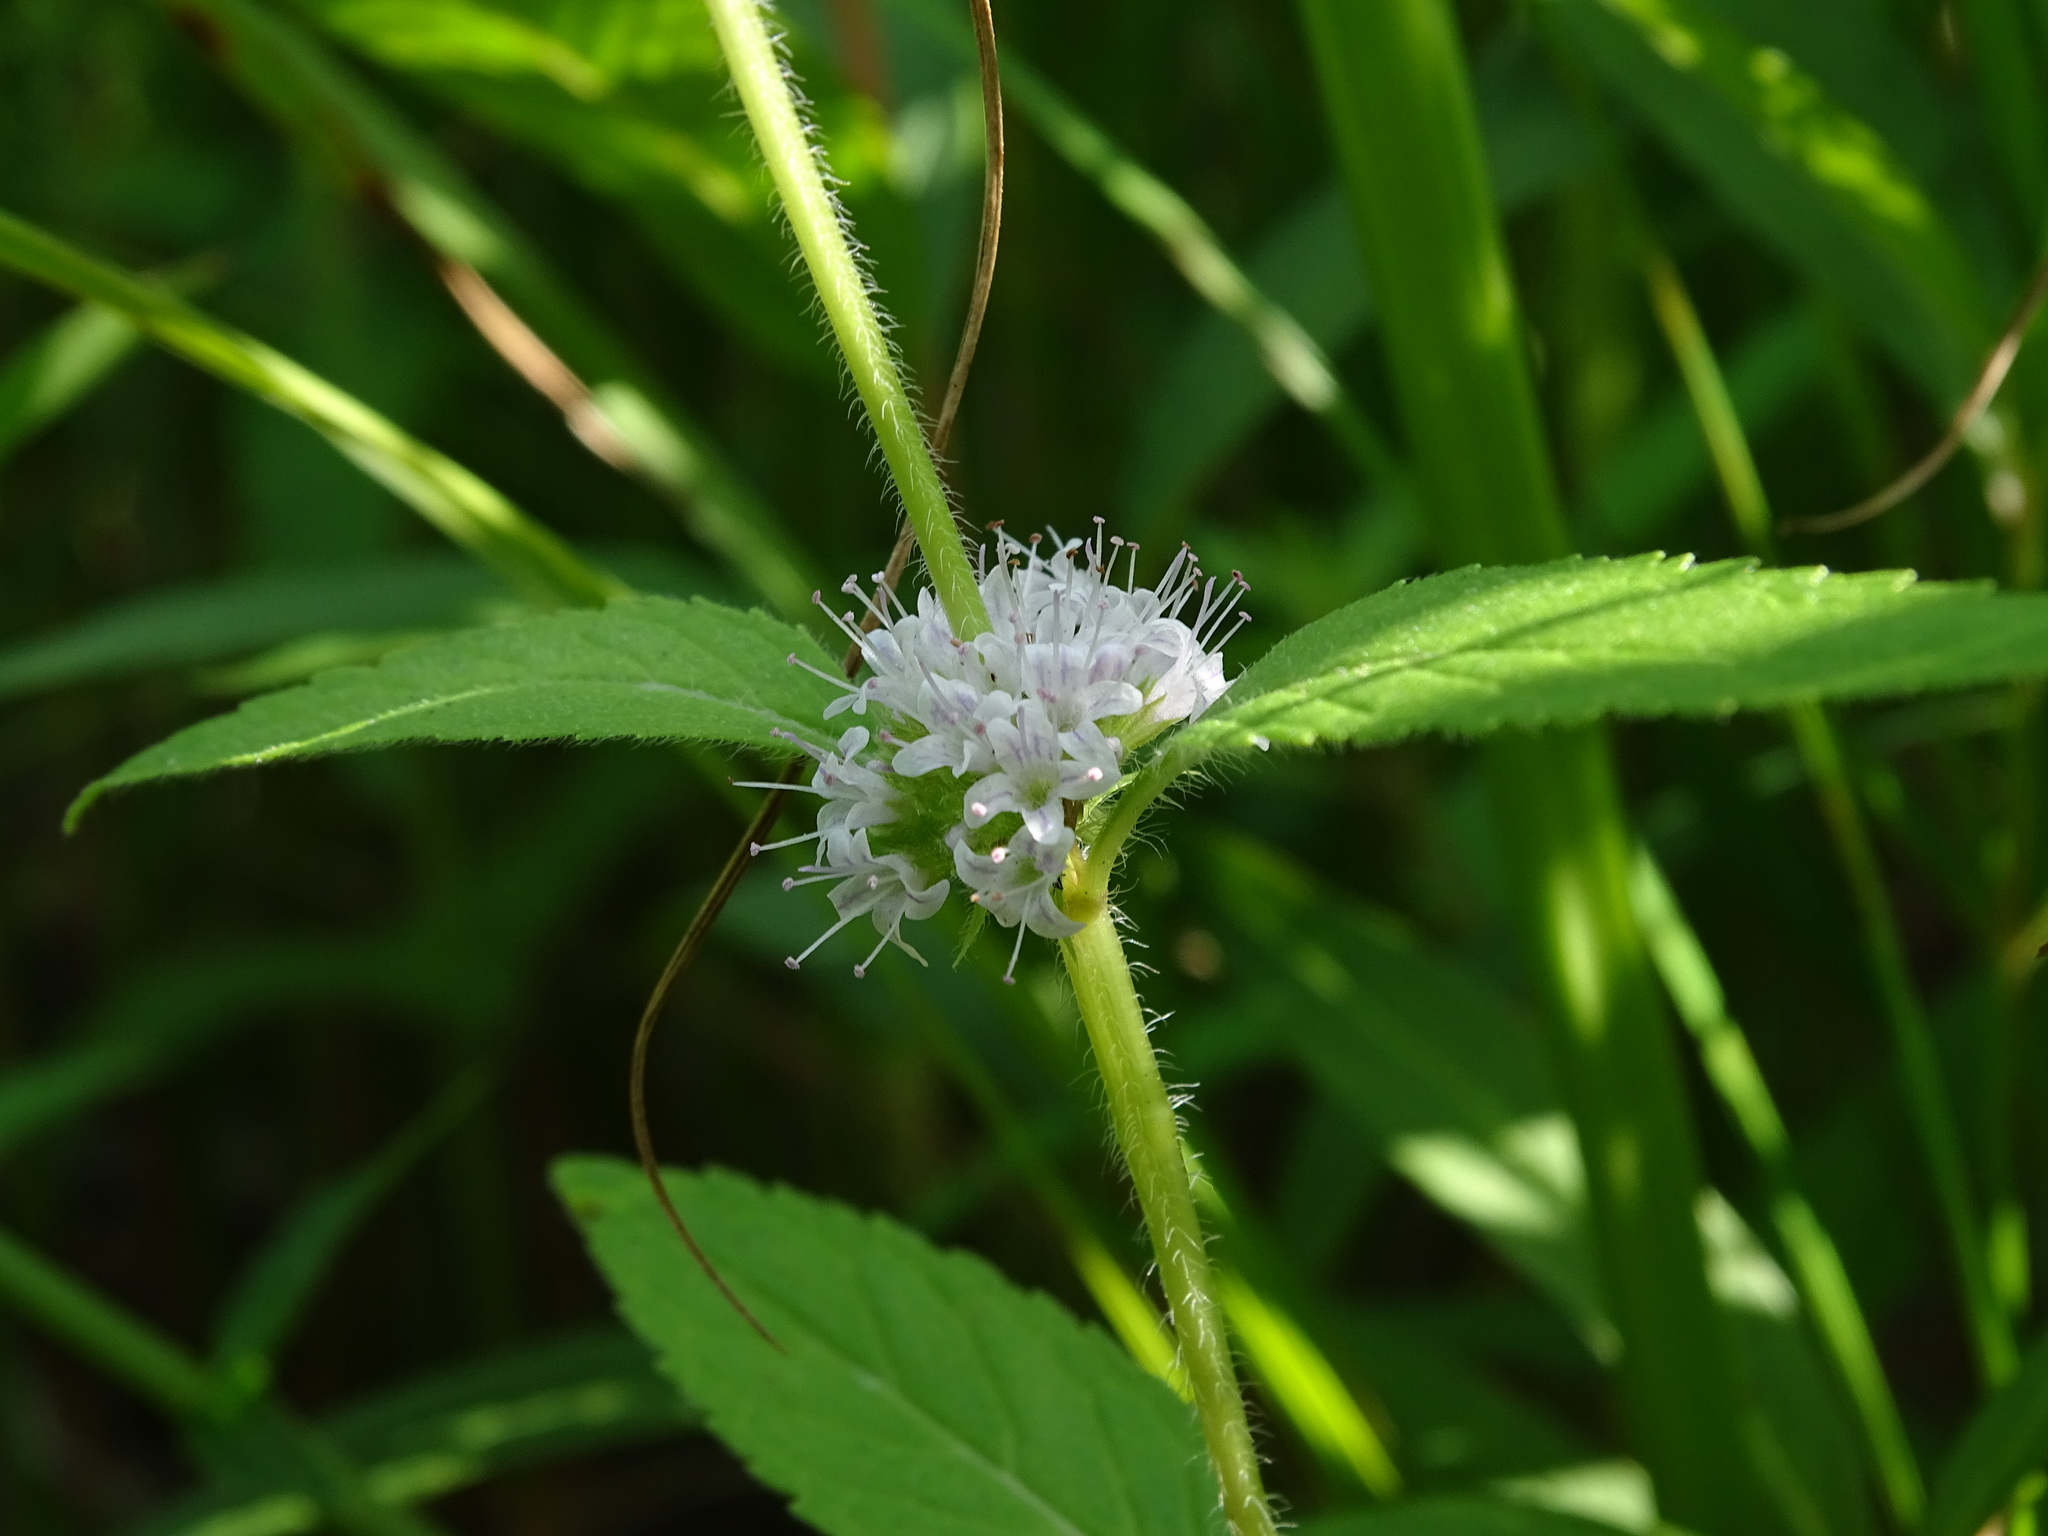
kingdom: Plantae
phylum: Tracheophyta
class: Magnoliopsida
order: Lamiales
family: Lamiaceae
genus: Mentha
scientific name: Mentha canadensis
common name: American corn mint
